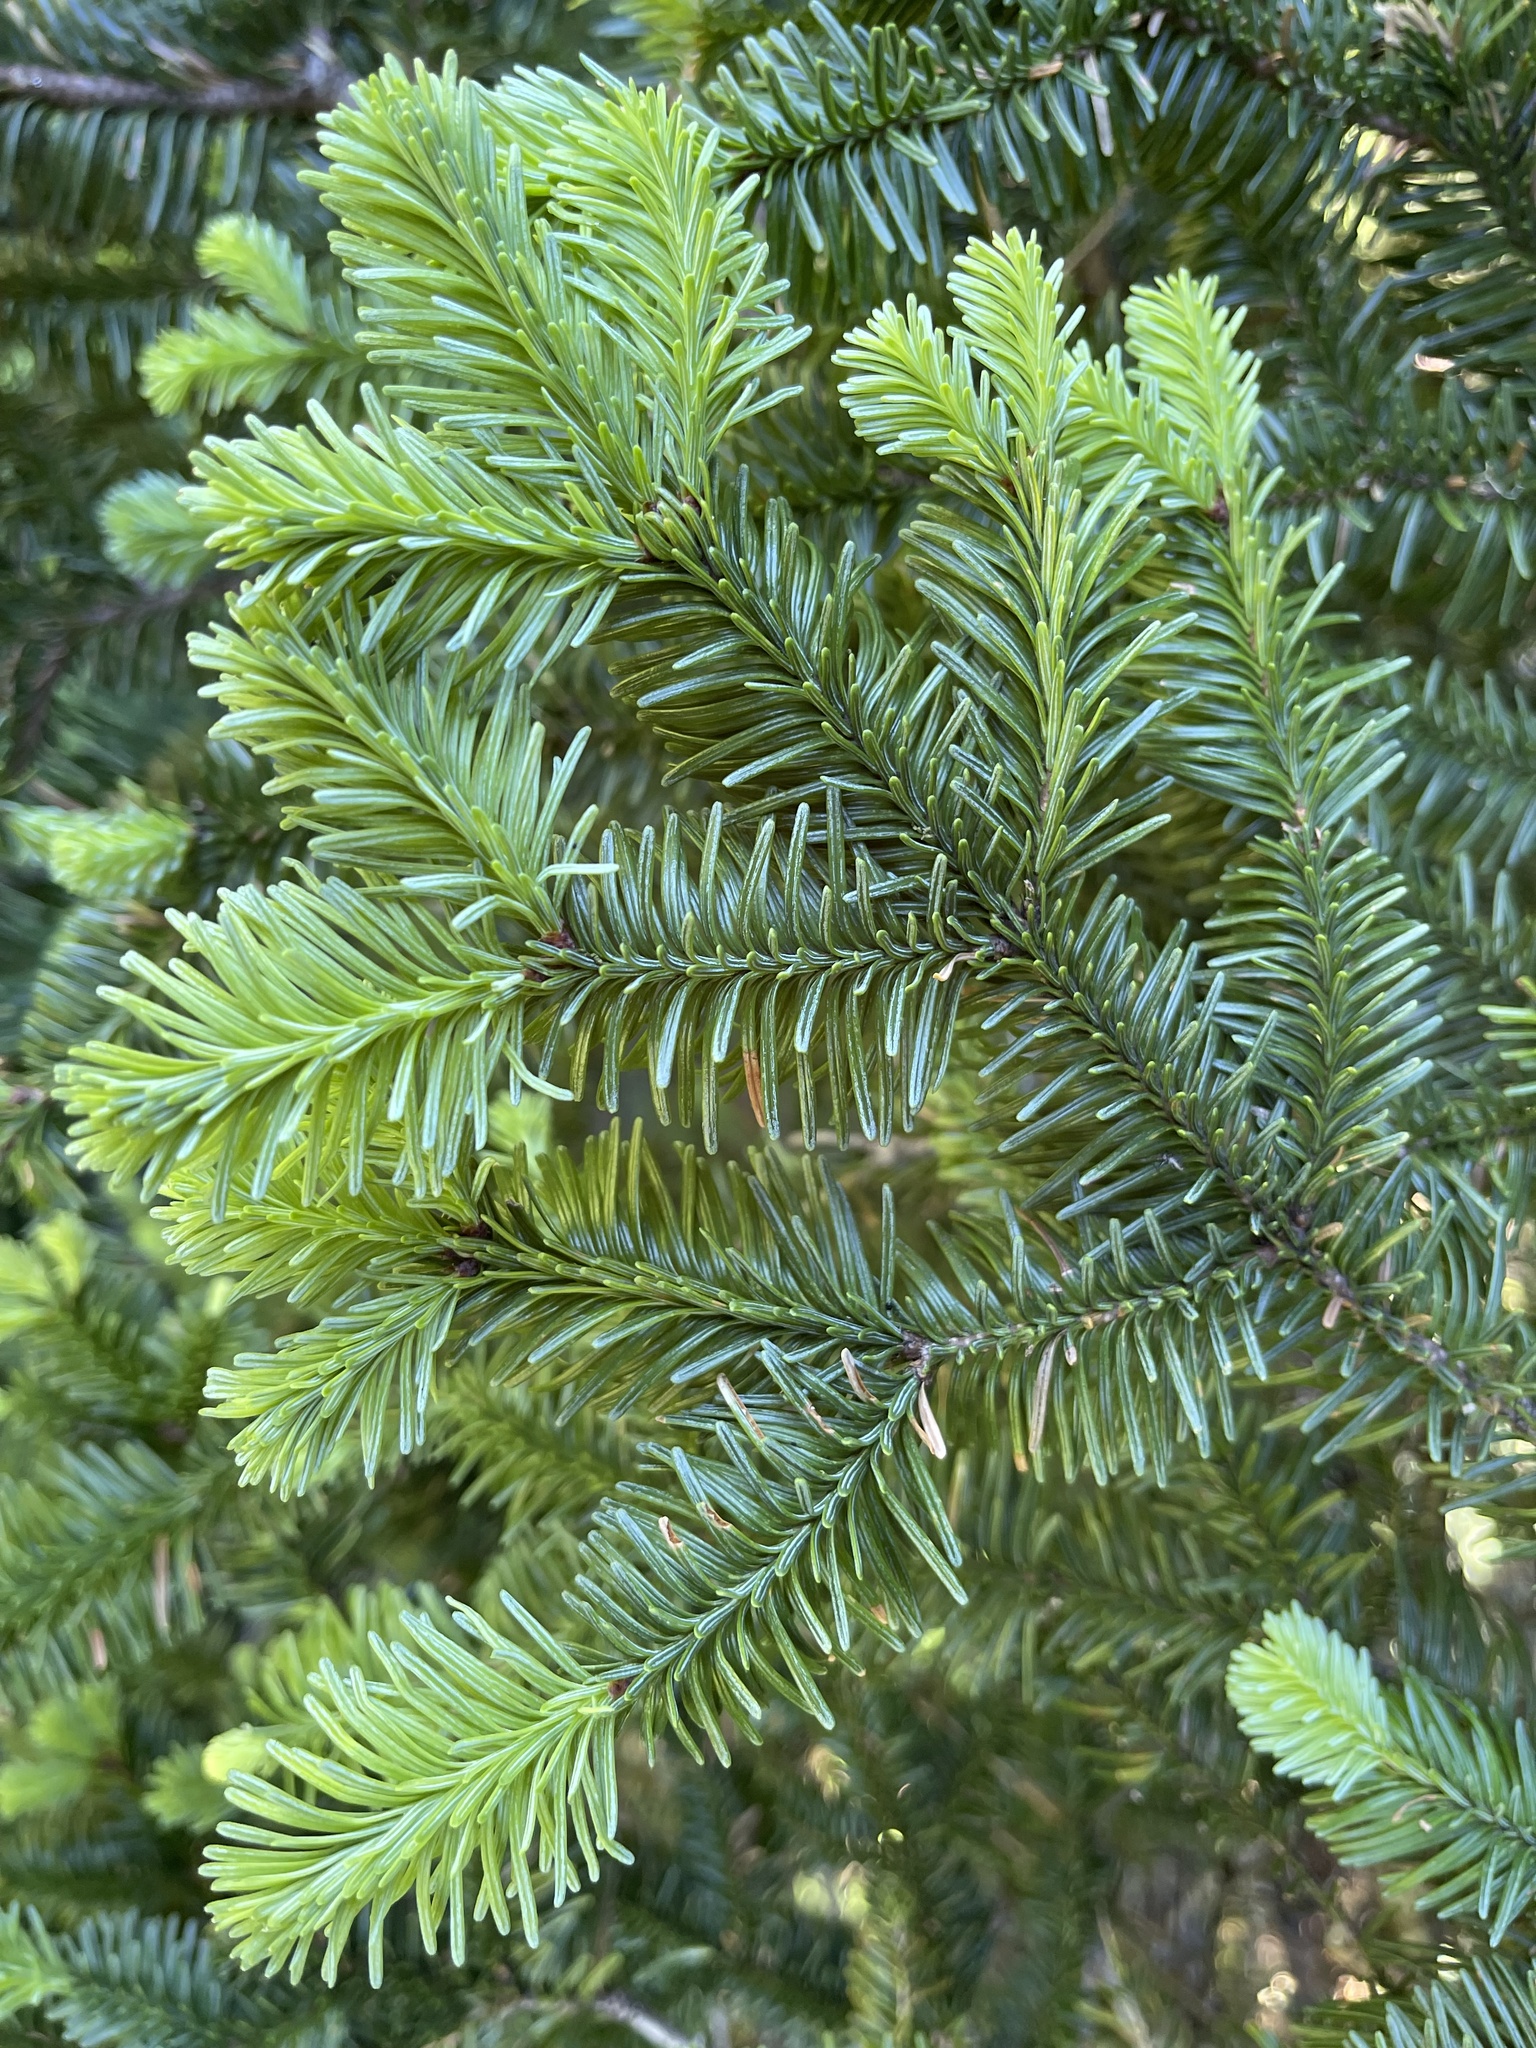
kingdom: Plantae
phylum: Tracheophyta
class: Pinopsida
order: Pinales
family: Pinaceae
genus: Abies
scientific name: Abies procera
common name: Noble fir
